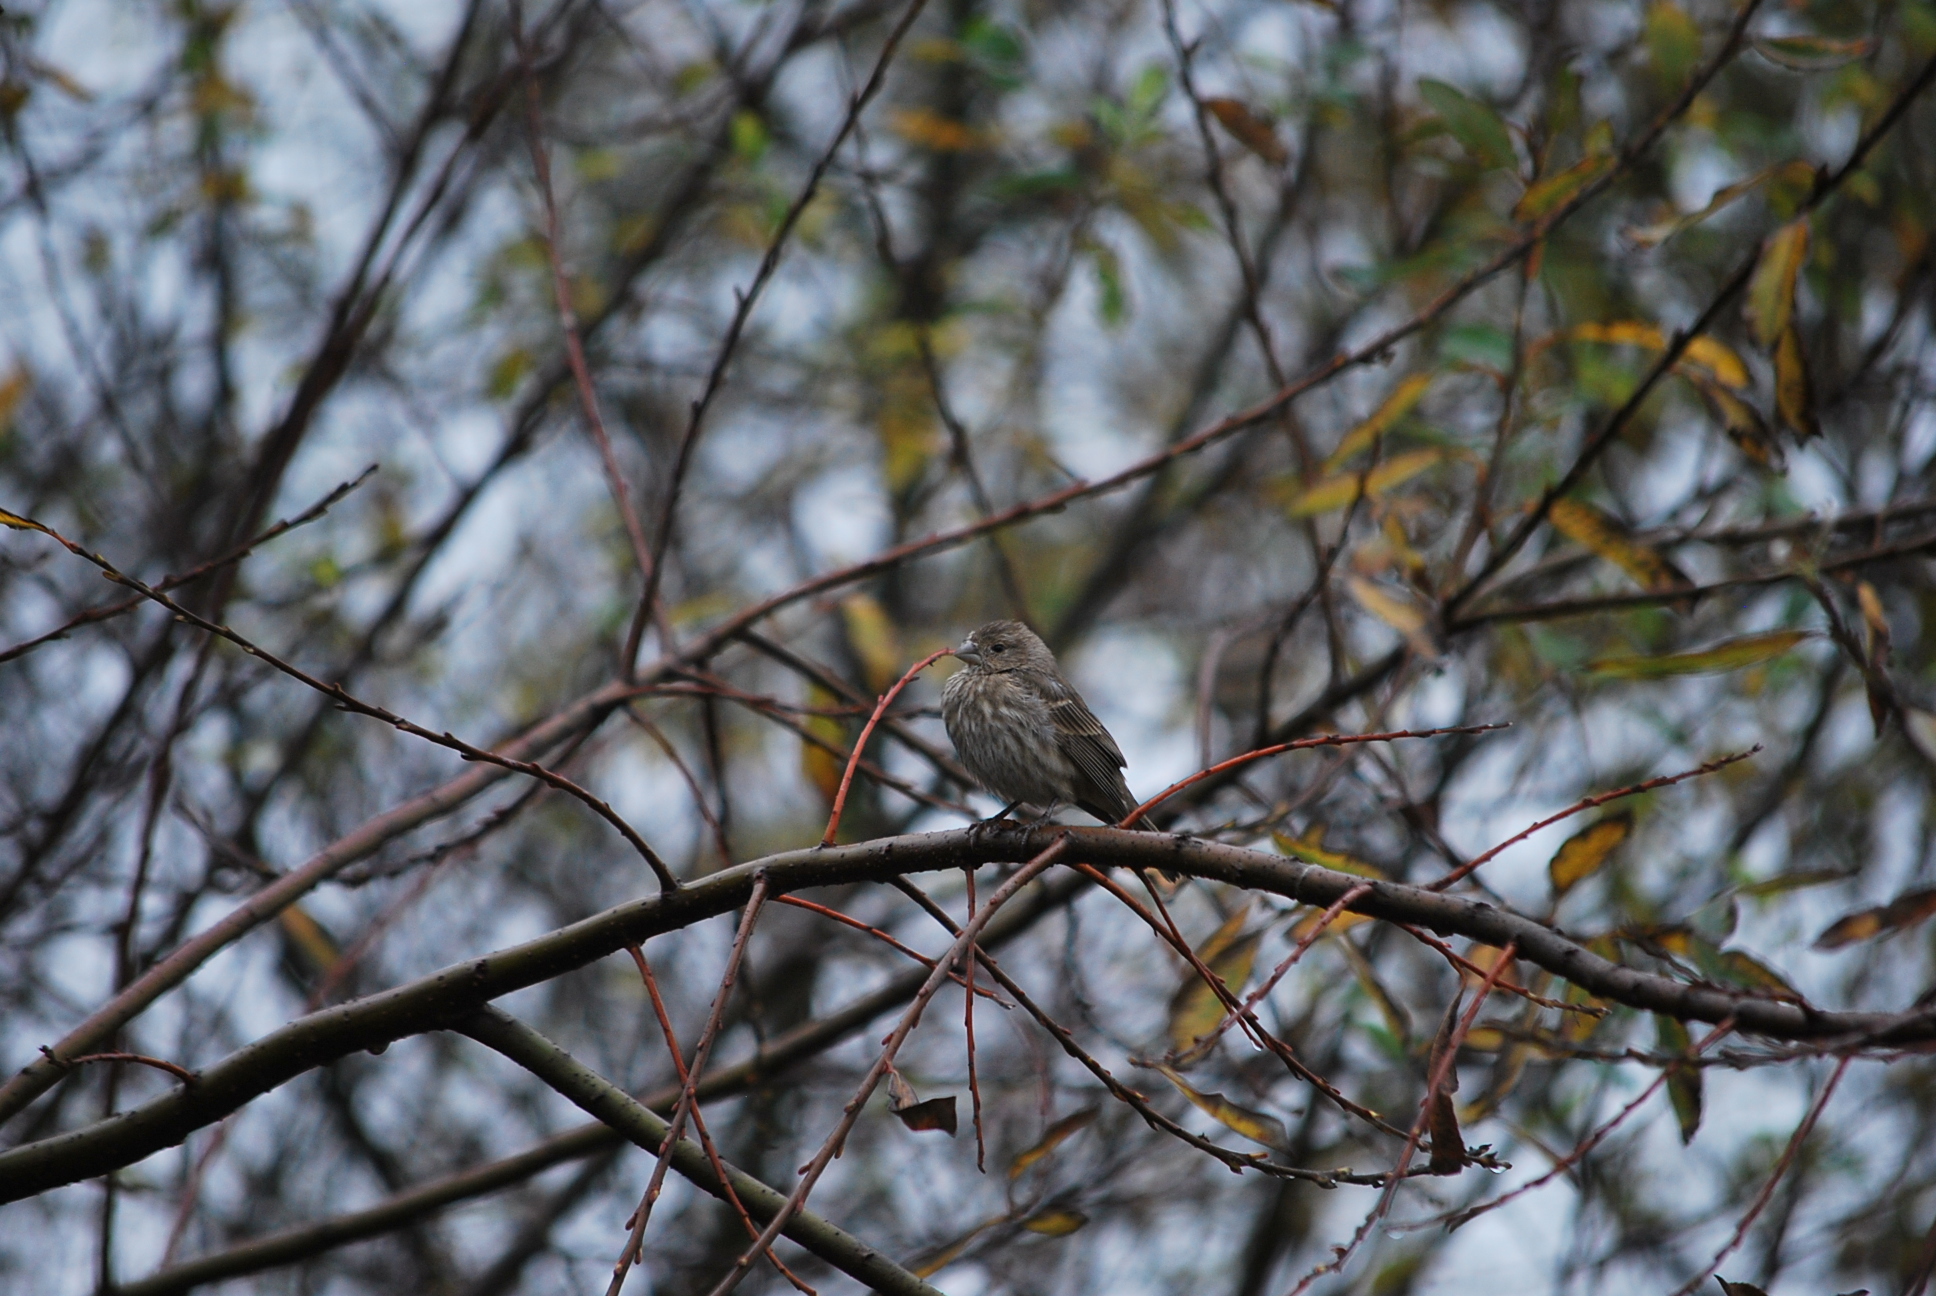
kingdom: Animalia
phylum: Chordata
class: Aves
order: Passeriformes
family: Fringillidae
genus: Haemorhous
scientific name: Haemorhous mexicanus
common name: House finch
